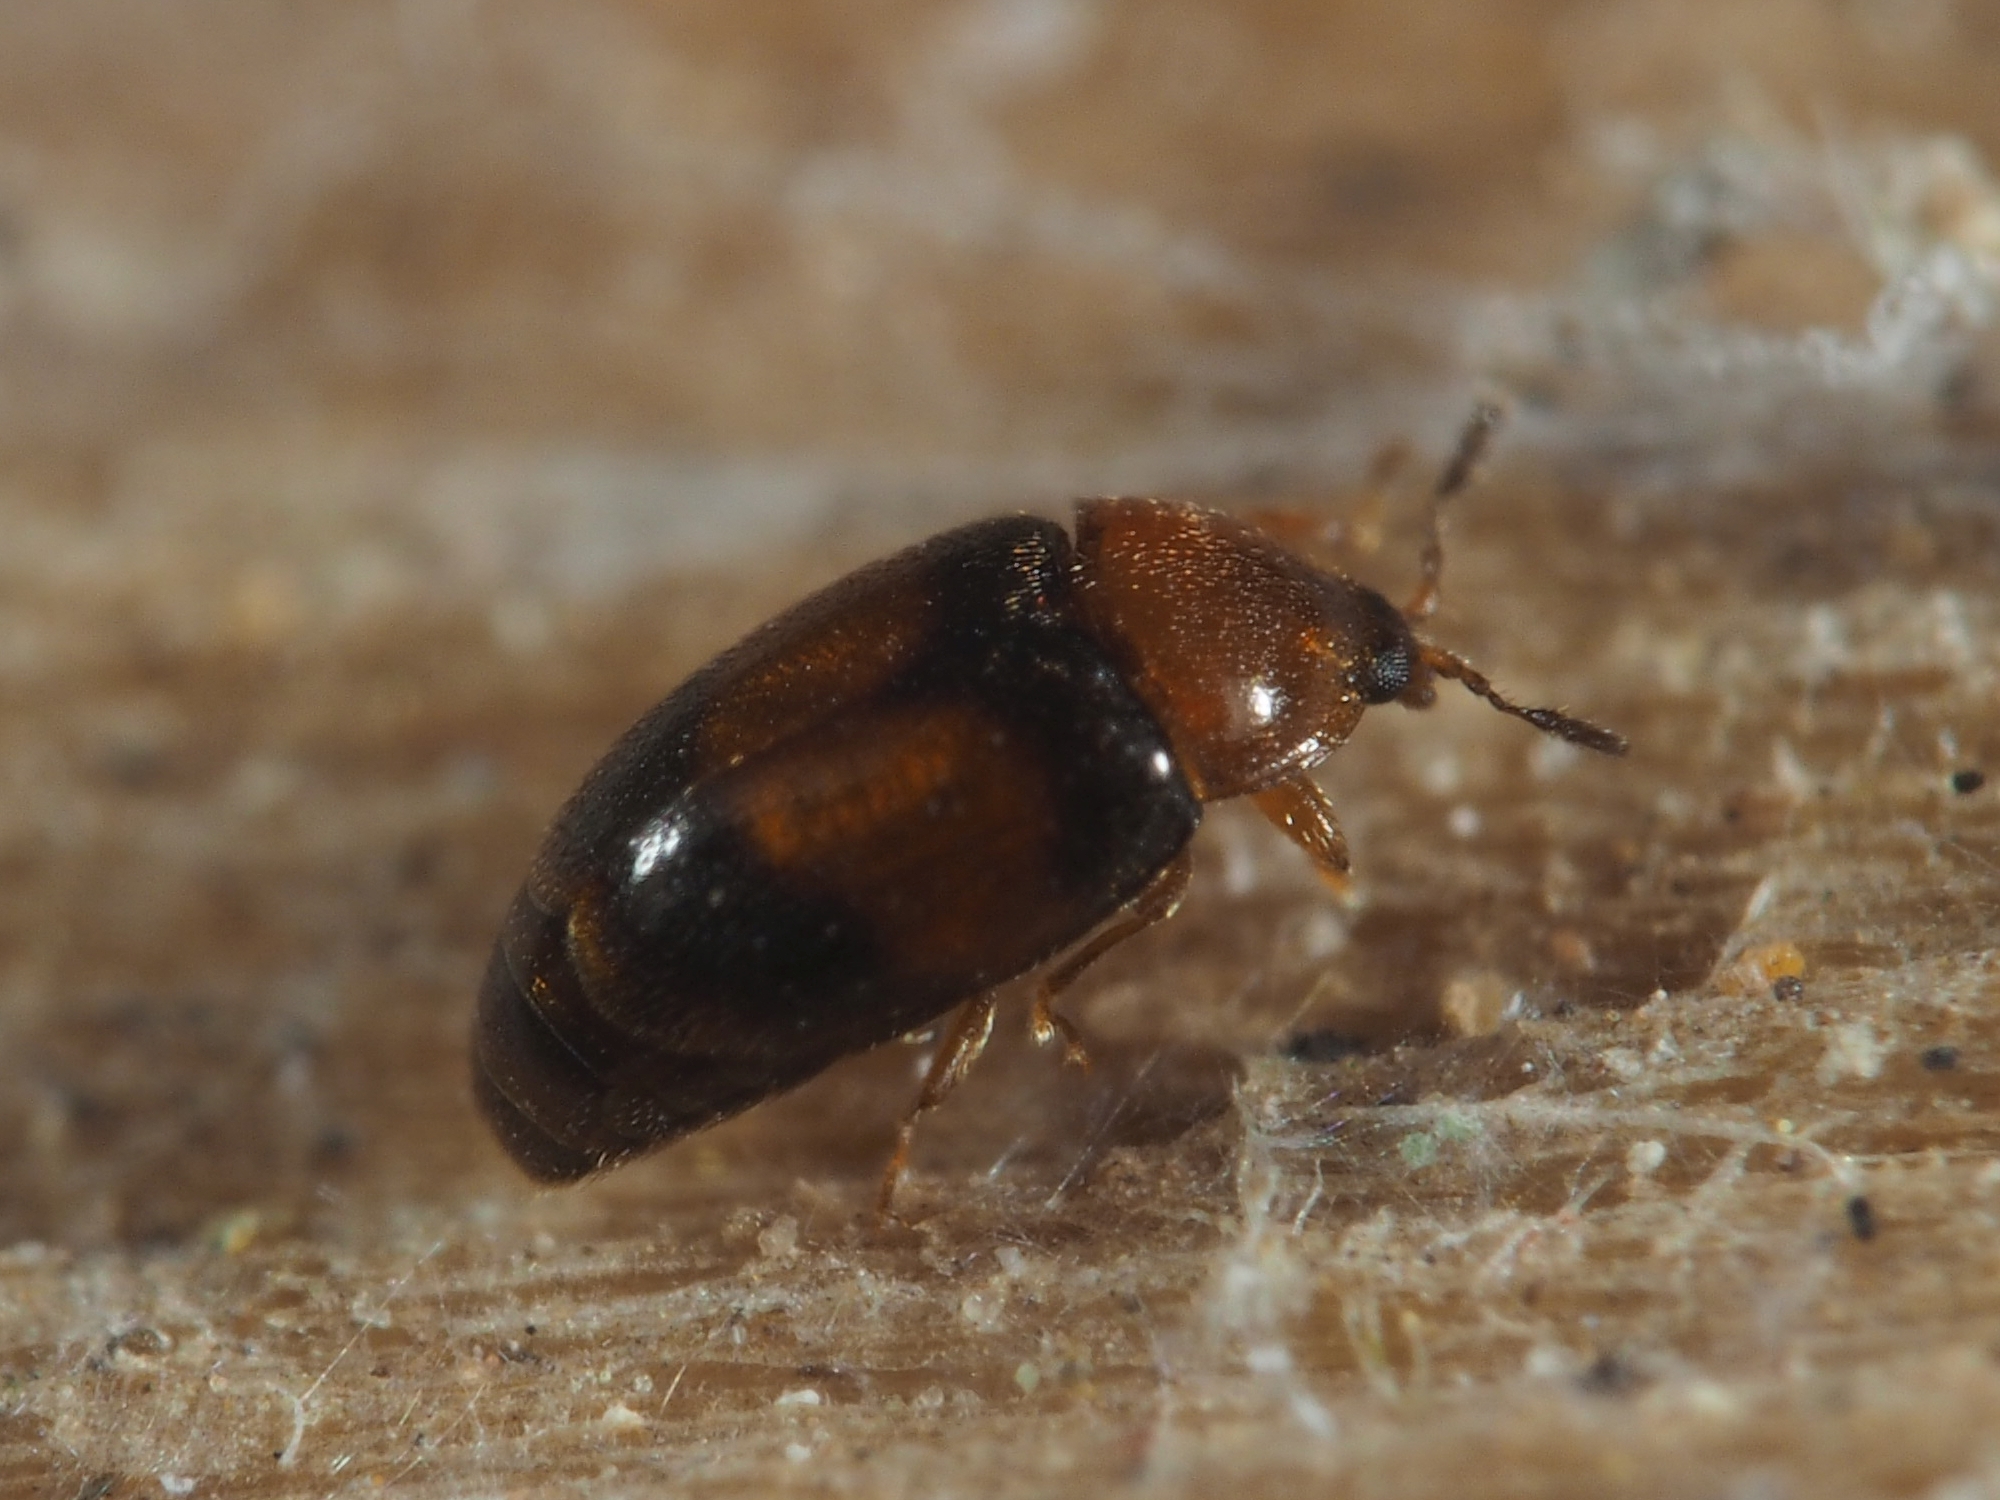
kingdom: Animalia
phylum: Arthropoda
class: Insecta
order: Coleoptera
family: Corylophidae
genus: Arthrolips
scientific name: Arthrolips fasciata
